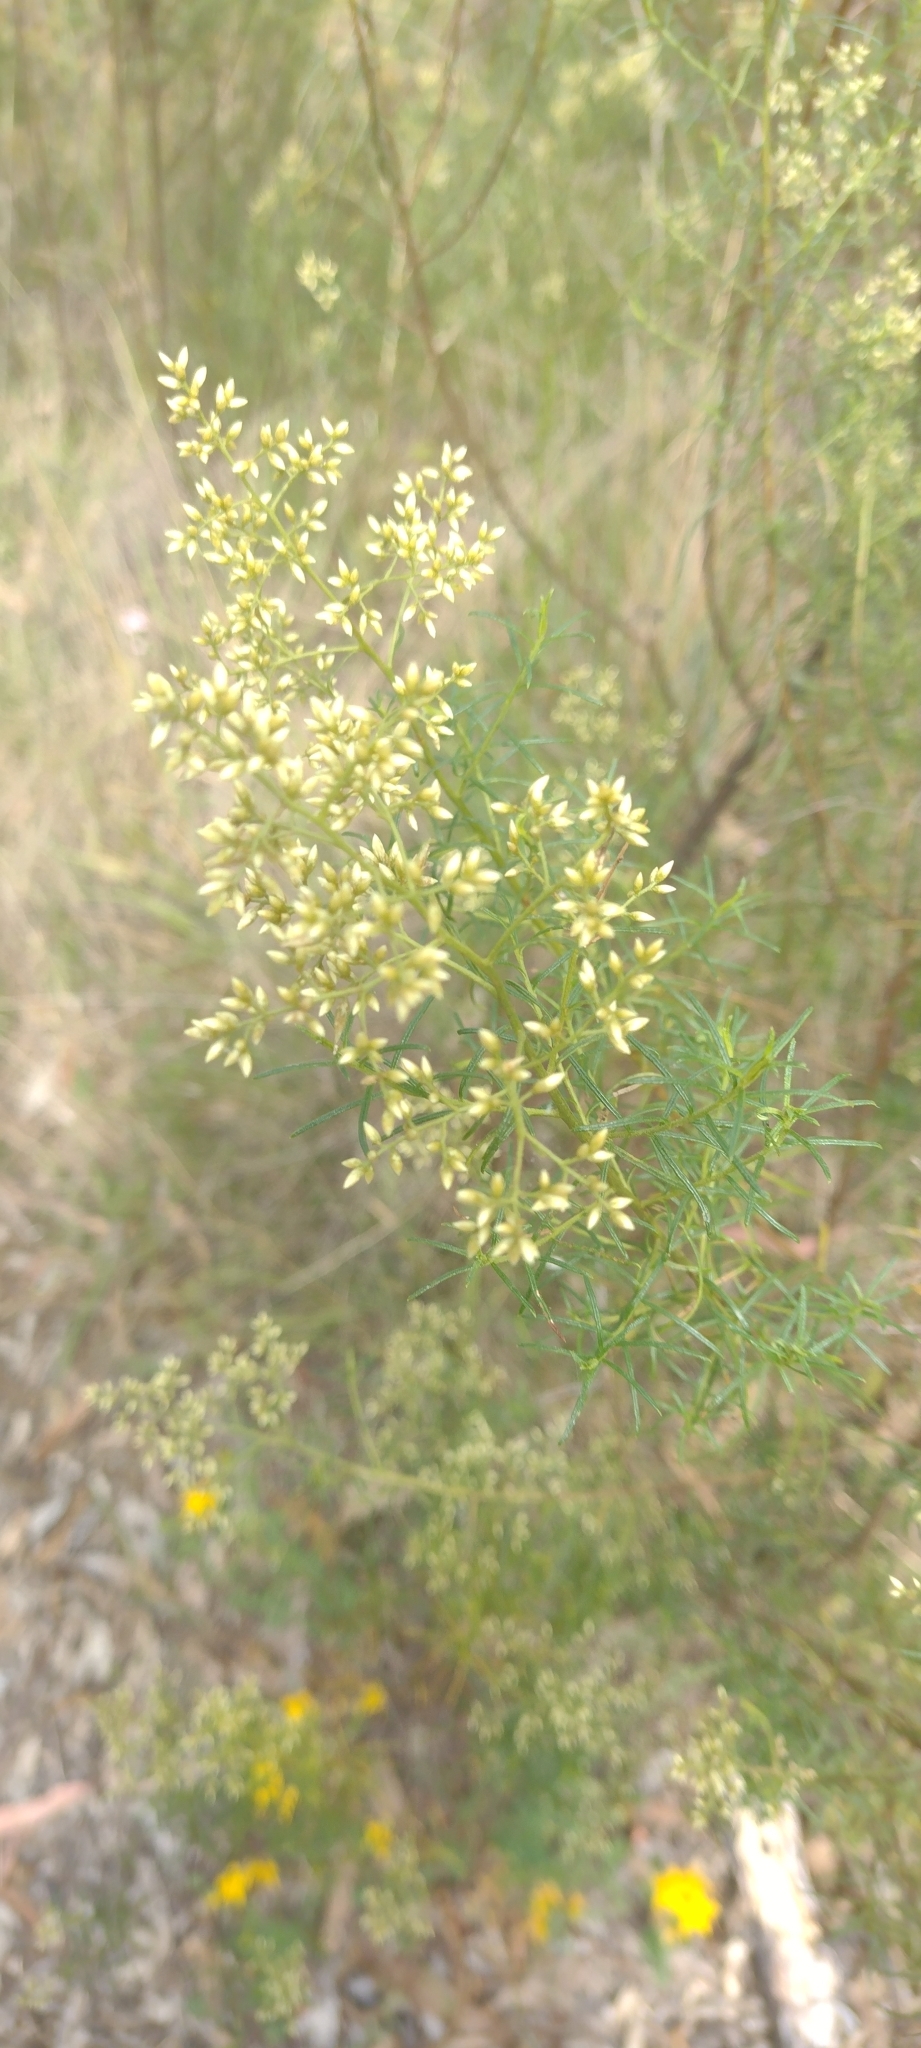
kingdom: Plantae
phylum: Tracheophyta
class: Magnoliopsida
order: Asterales
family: Asteraceae
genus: Cassinia
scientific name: Cassinia quinquefaria
